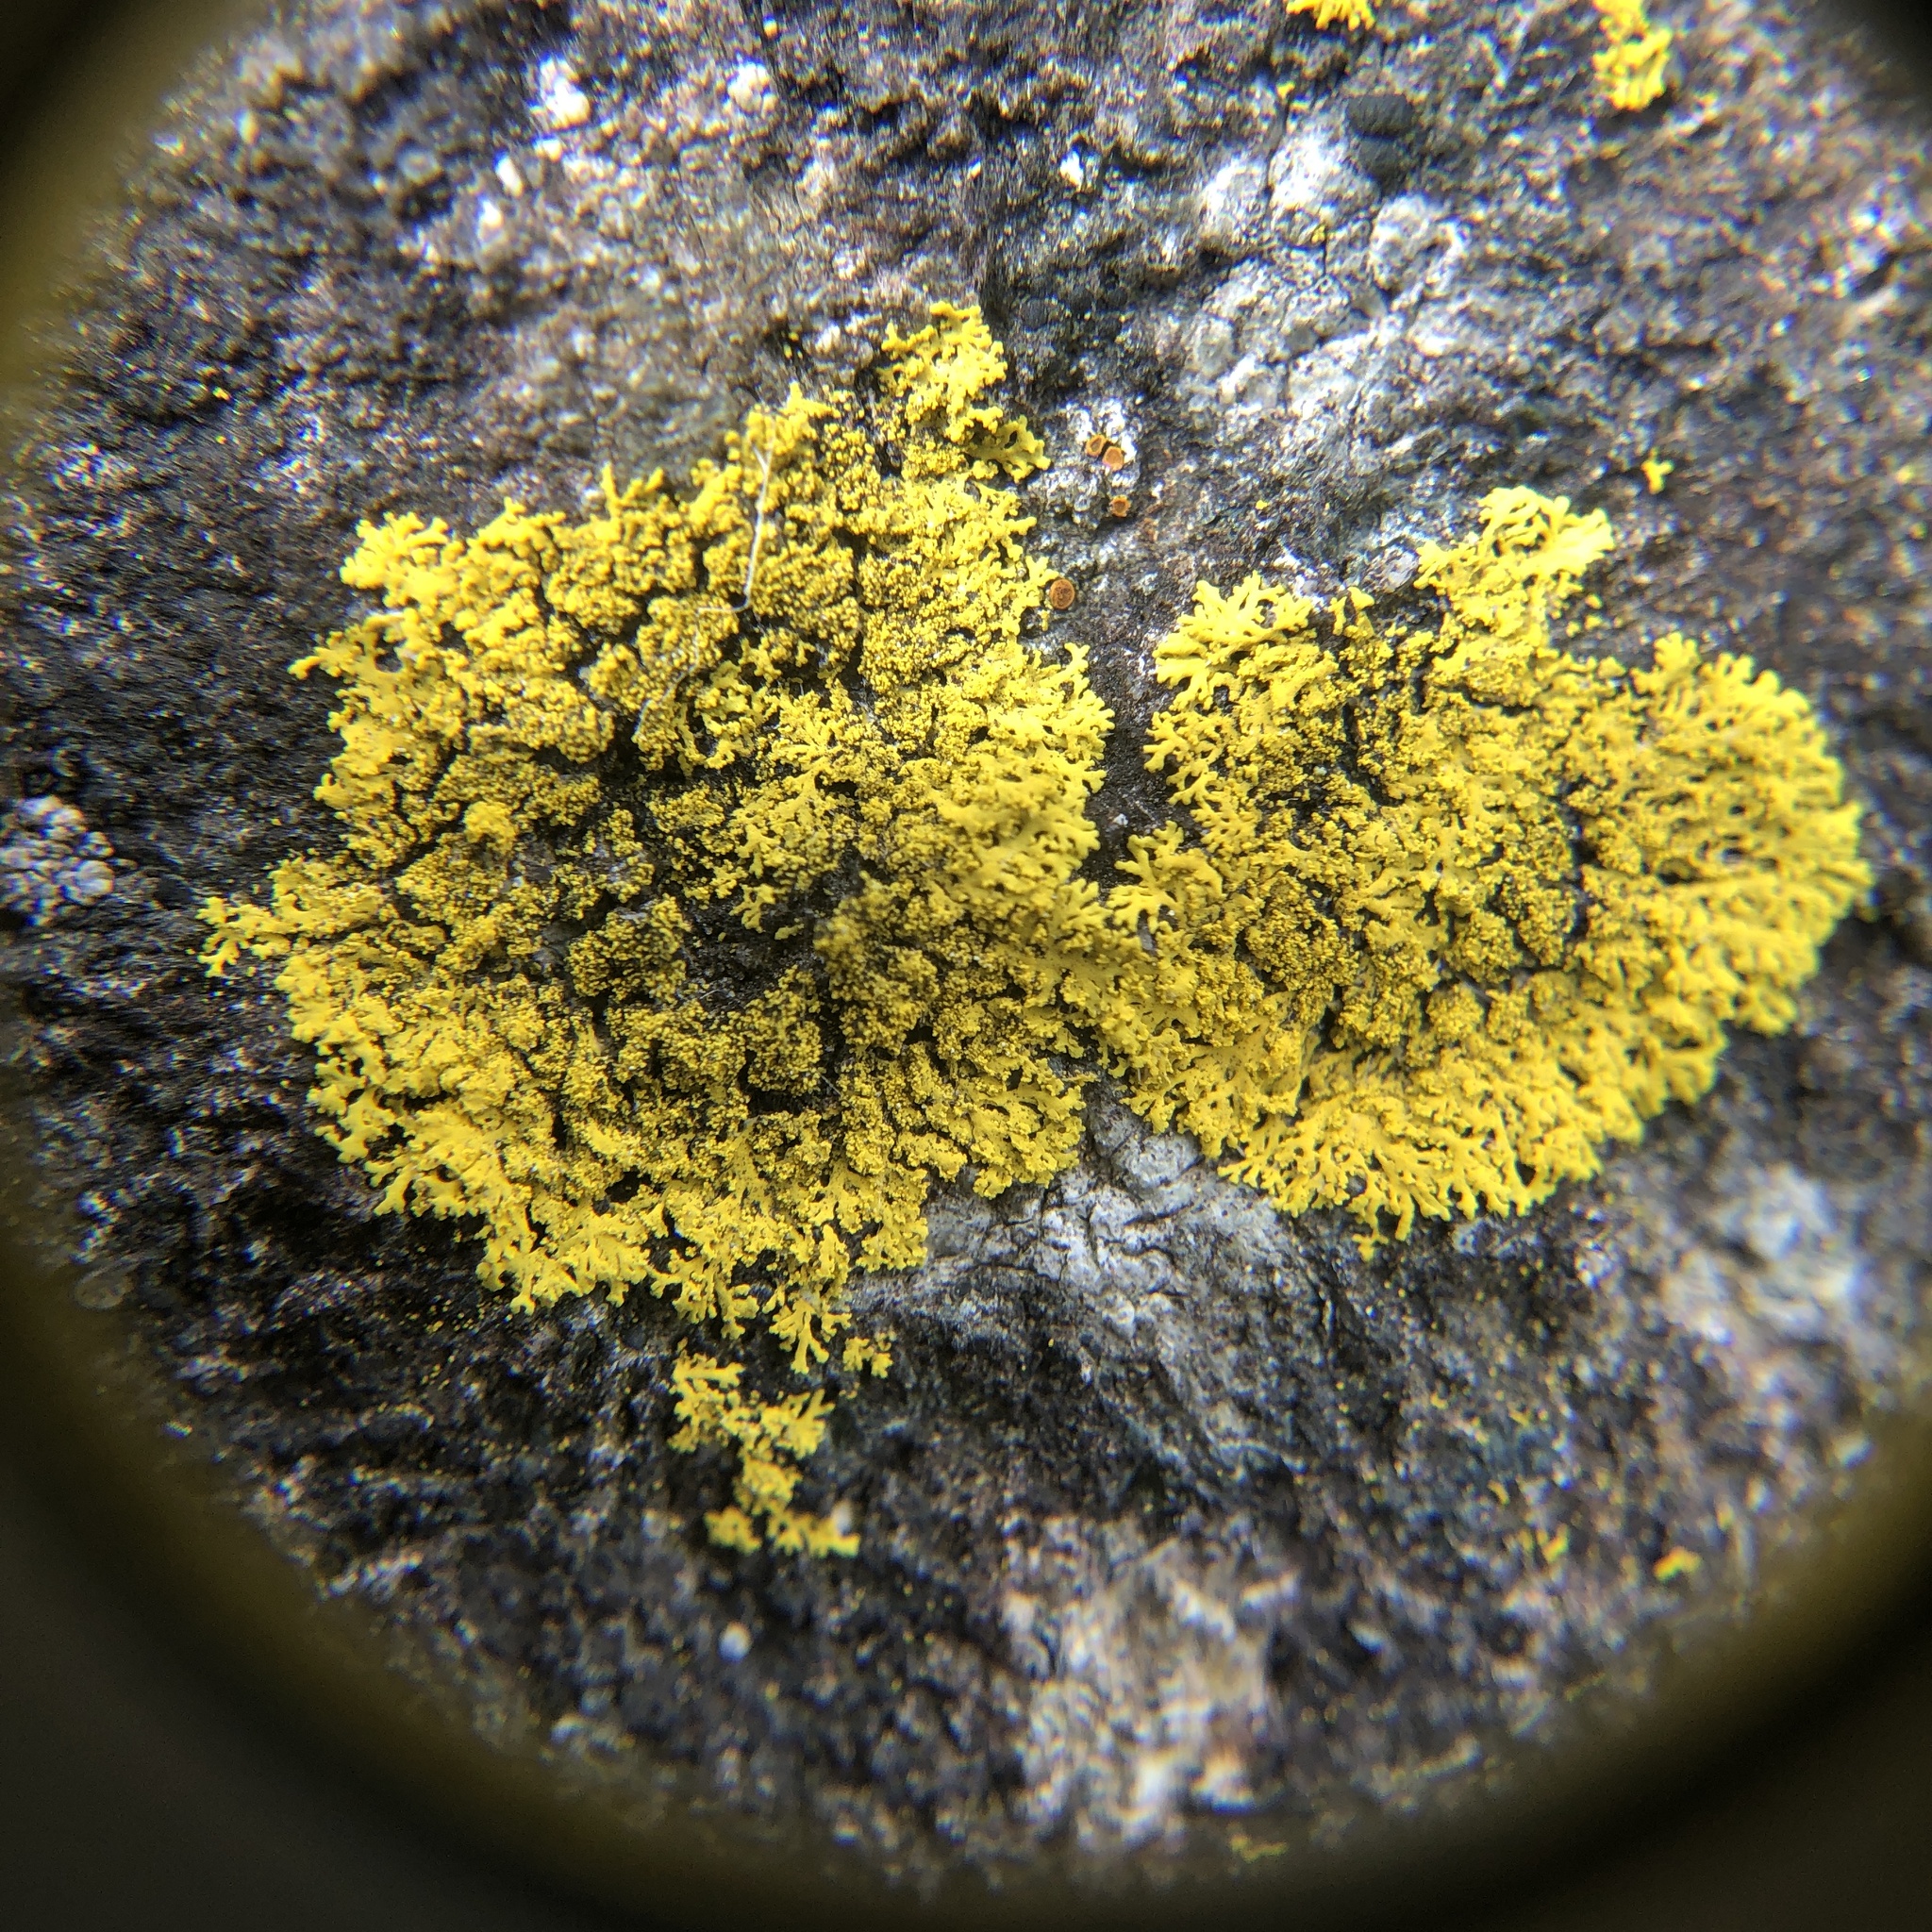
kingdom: Fungi
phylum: Ascomycota
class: Candelariomycetes
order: Candelariales
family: Candelariaceae
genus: Candelaria
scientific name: Candelaria concolor
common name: Candleflame lichen
